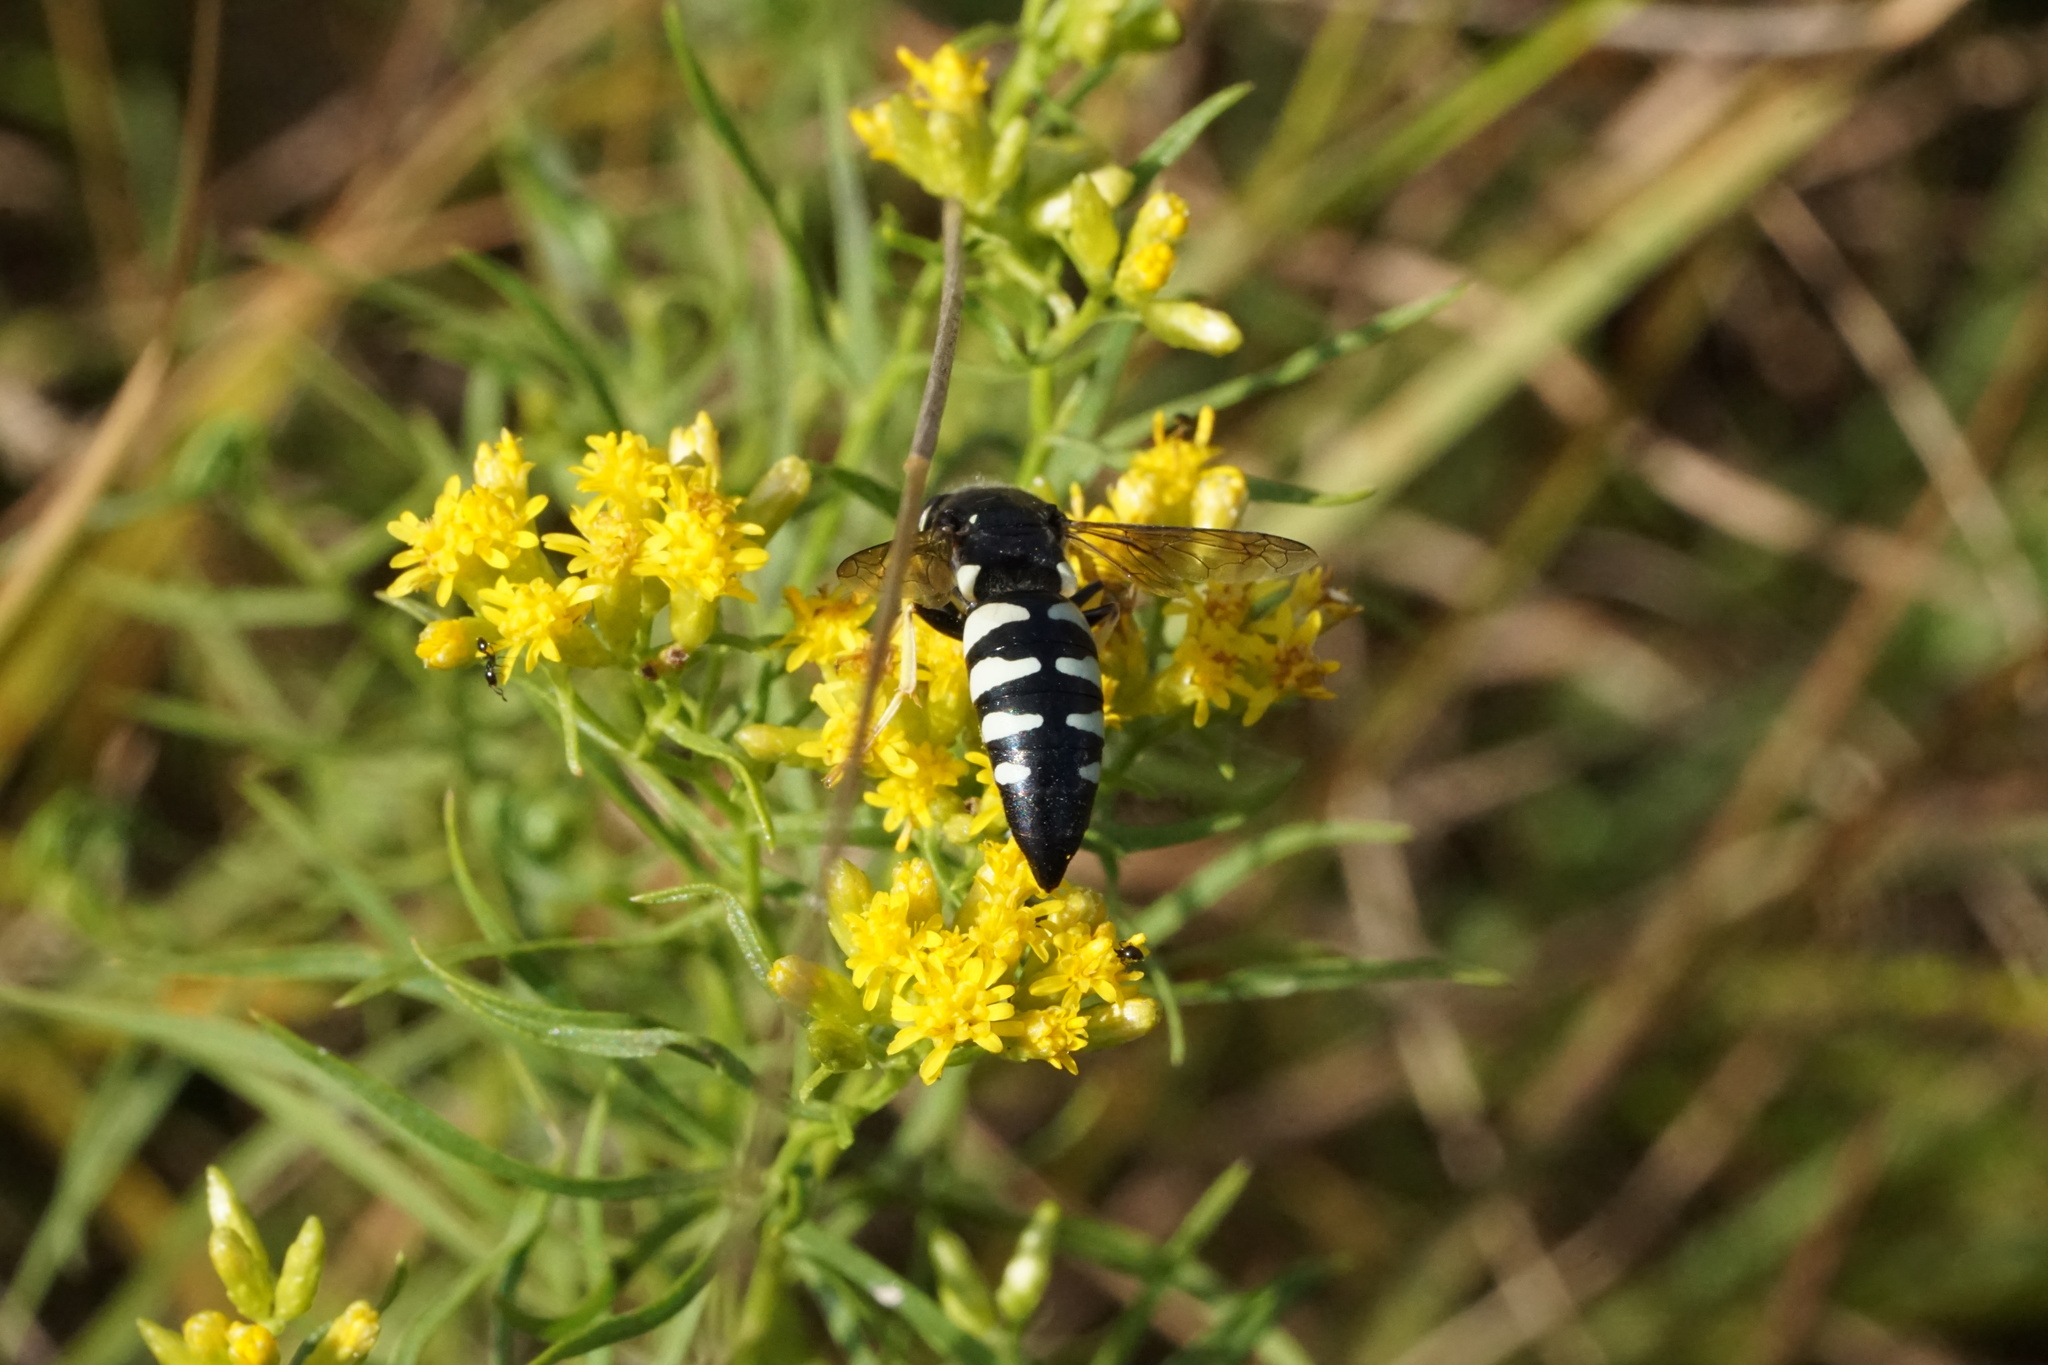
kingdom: Animalia
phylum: Arthropoda
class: Insecta
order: Hymenoptera
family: Crabronidae
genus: Bicyrtes
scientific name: Bicyrtes quadrifasciatus
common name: Four-banded stink bug hunter wasp
